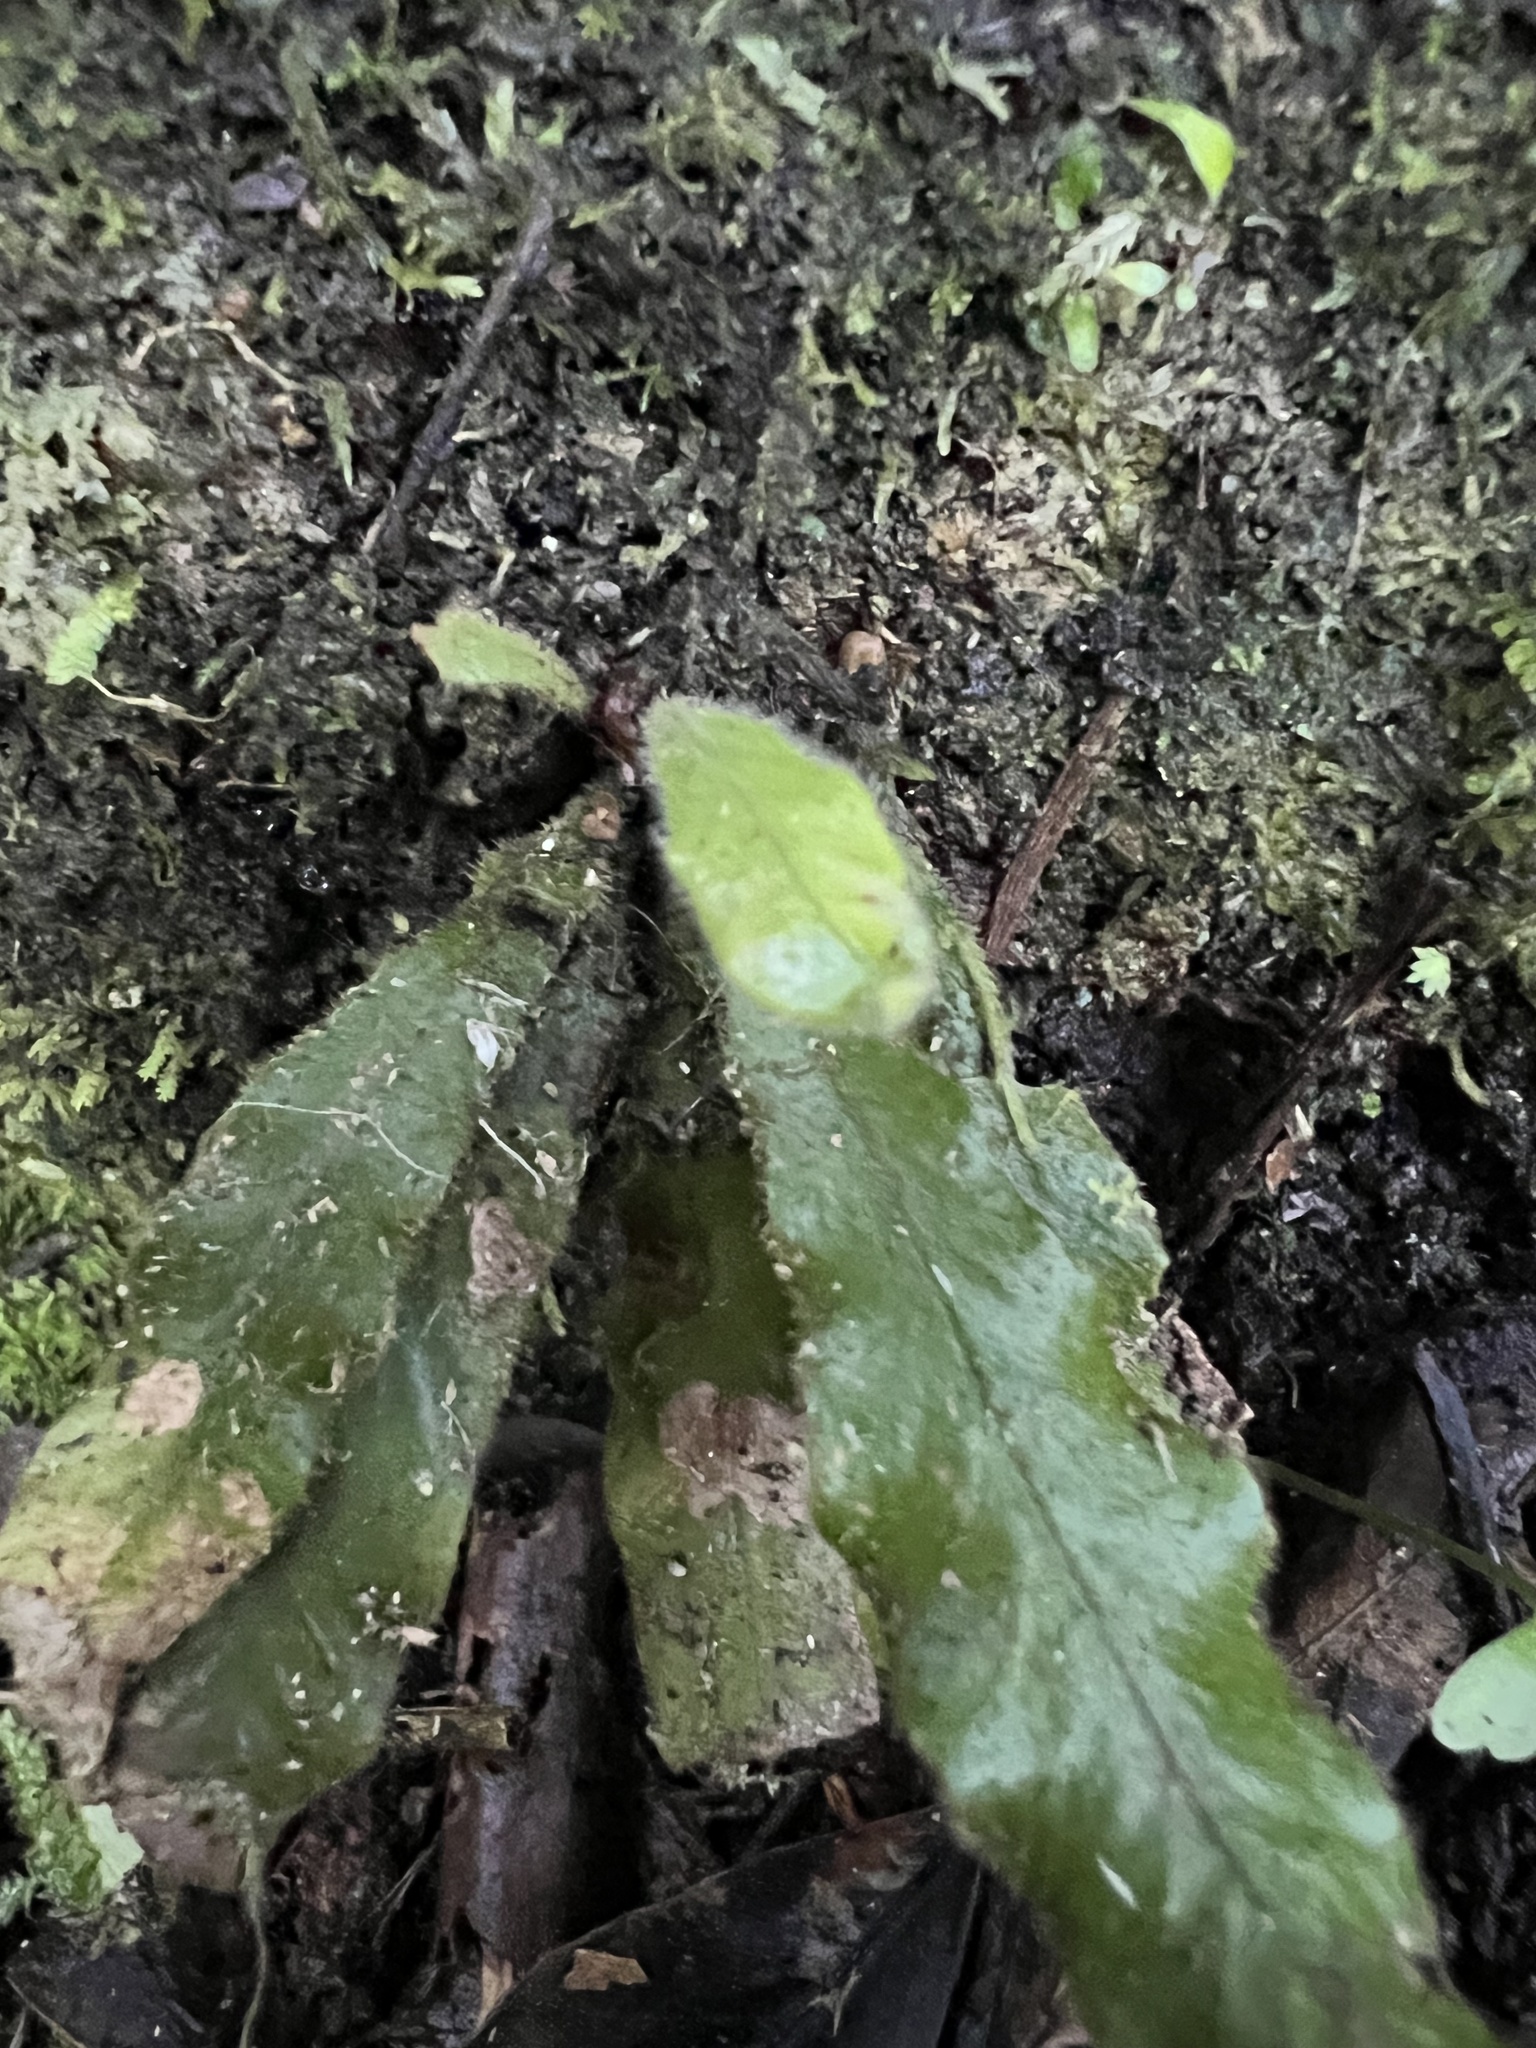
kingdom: Plantae
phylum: Tracheophyta
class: Polypodiopsida
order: Polypodiales
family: Polypodiaceae
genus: Notogrammitis
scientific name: Notogrammitis pseudociliata
